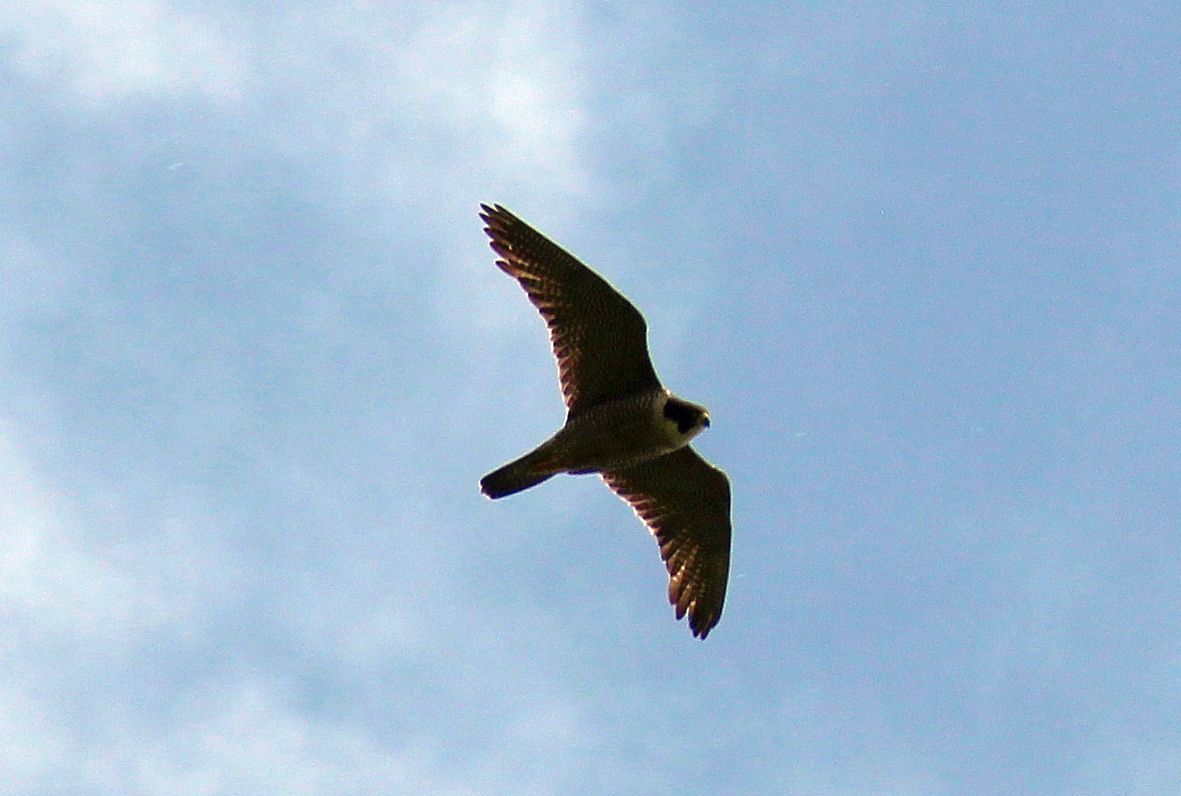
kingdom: Animalia
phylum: Chordata
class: Aves
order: Falconiformes
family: Falconidae
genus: Falco
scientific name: Falco peregrinus
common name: Peregrine falcon
